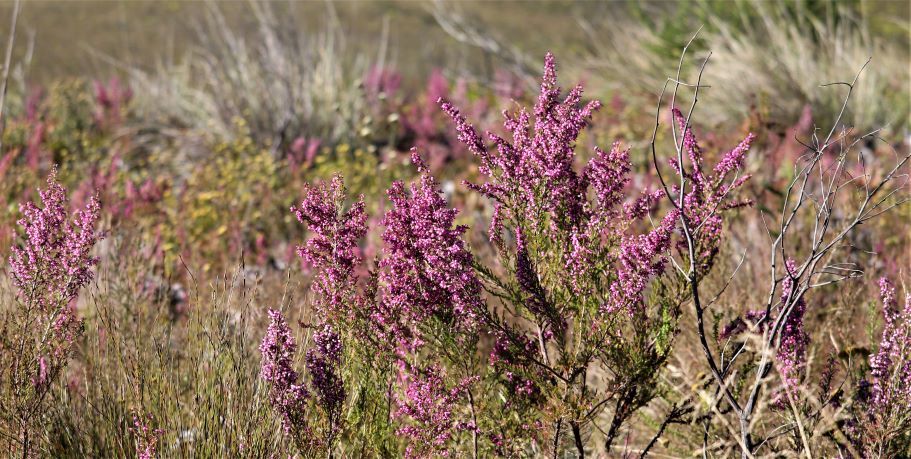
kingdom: Plantae
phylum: Tracheophyta
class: Magnoliopsida
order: Ericales
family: Ericaceae
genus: Erica
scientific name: Erica nutans
